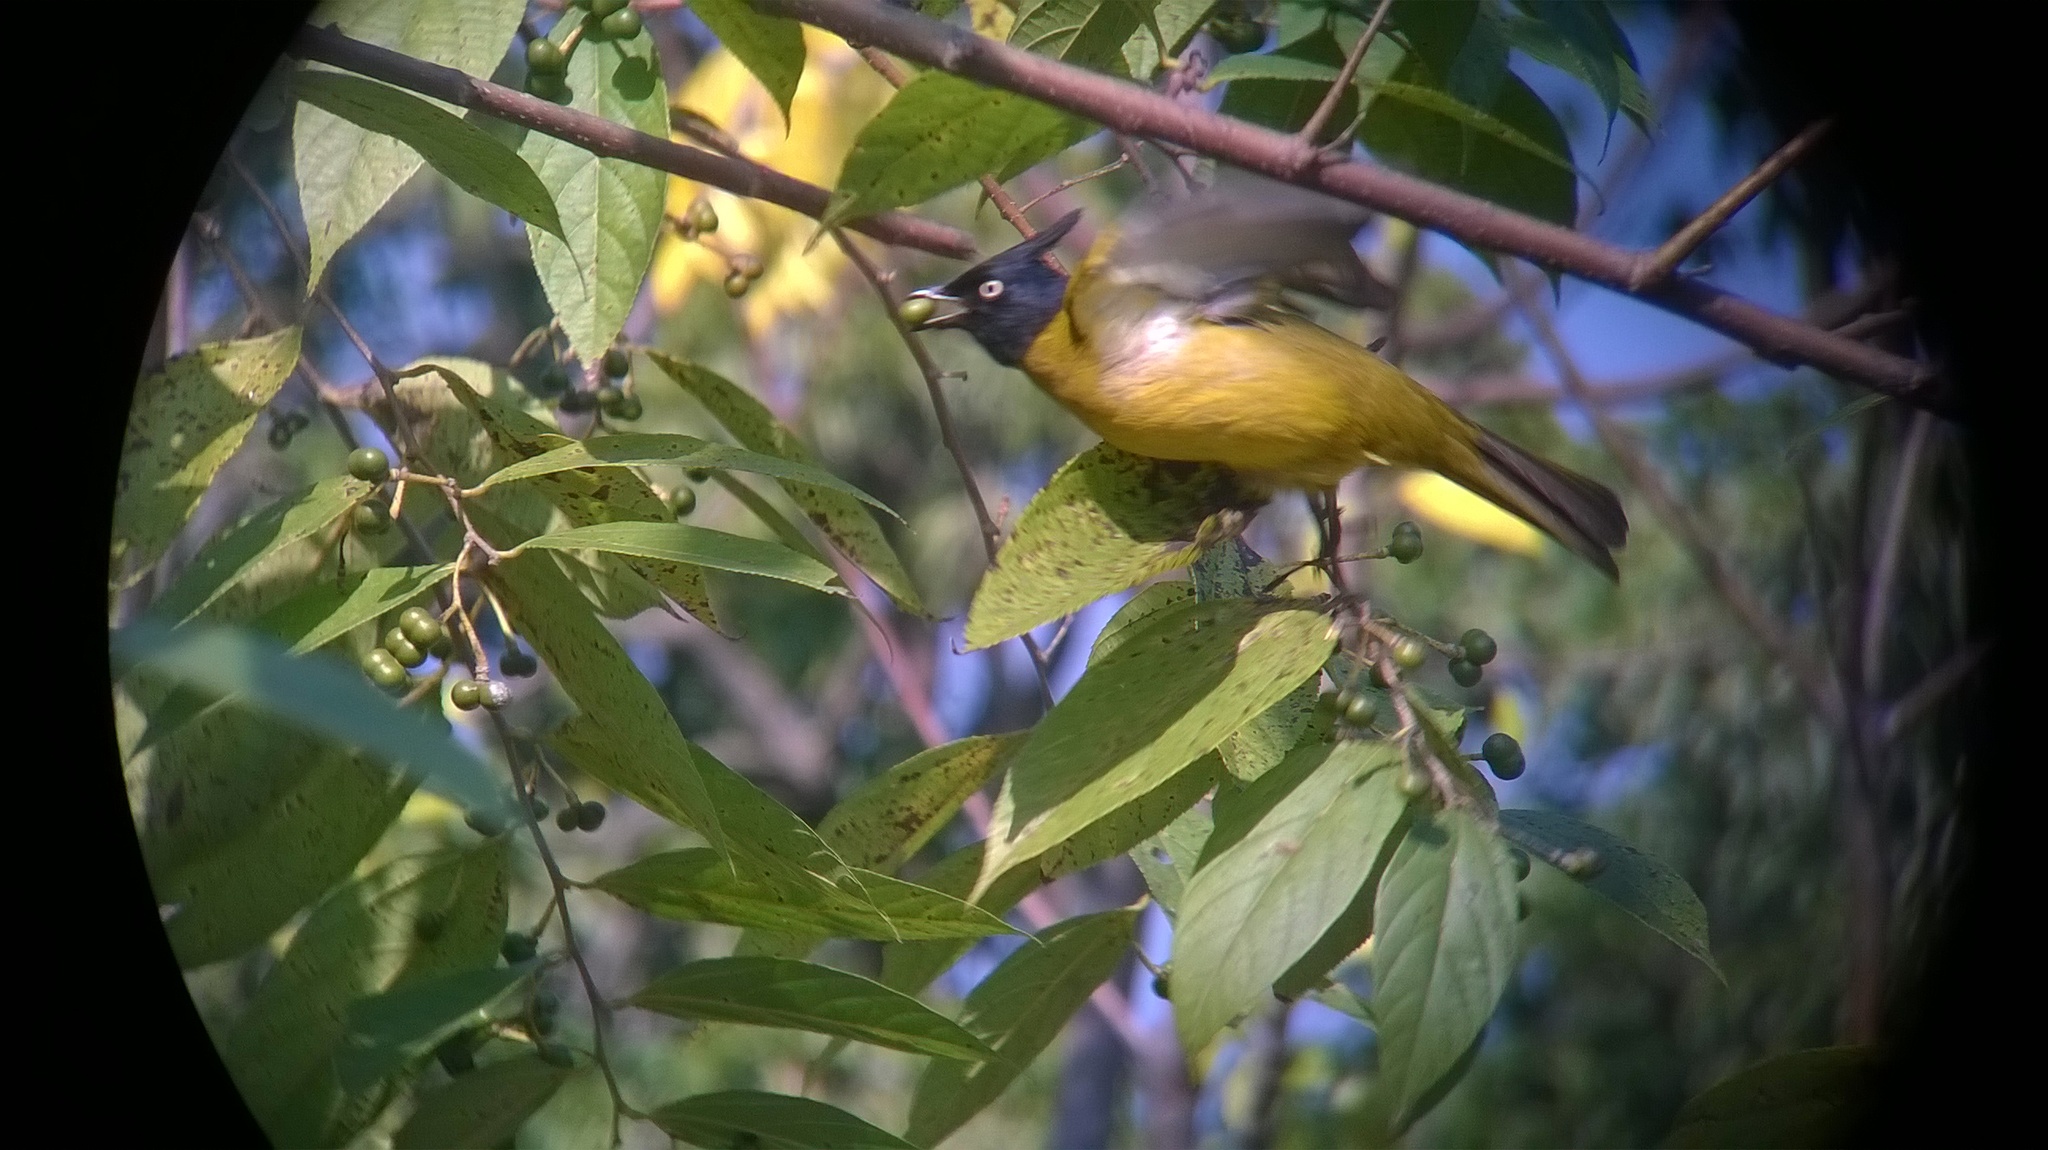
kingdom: Animalia
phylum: Chordata
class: Aves
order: Passeriformes
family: Pycnonotidae
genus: Pycnonotus
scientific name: Pycnonotus flaviventris
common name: Black-crested bulbul
